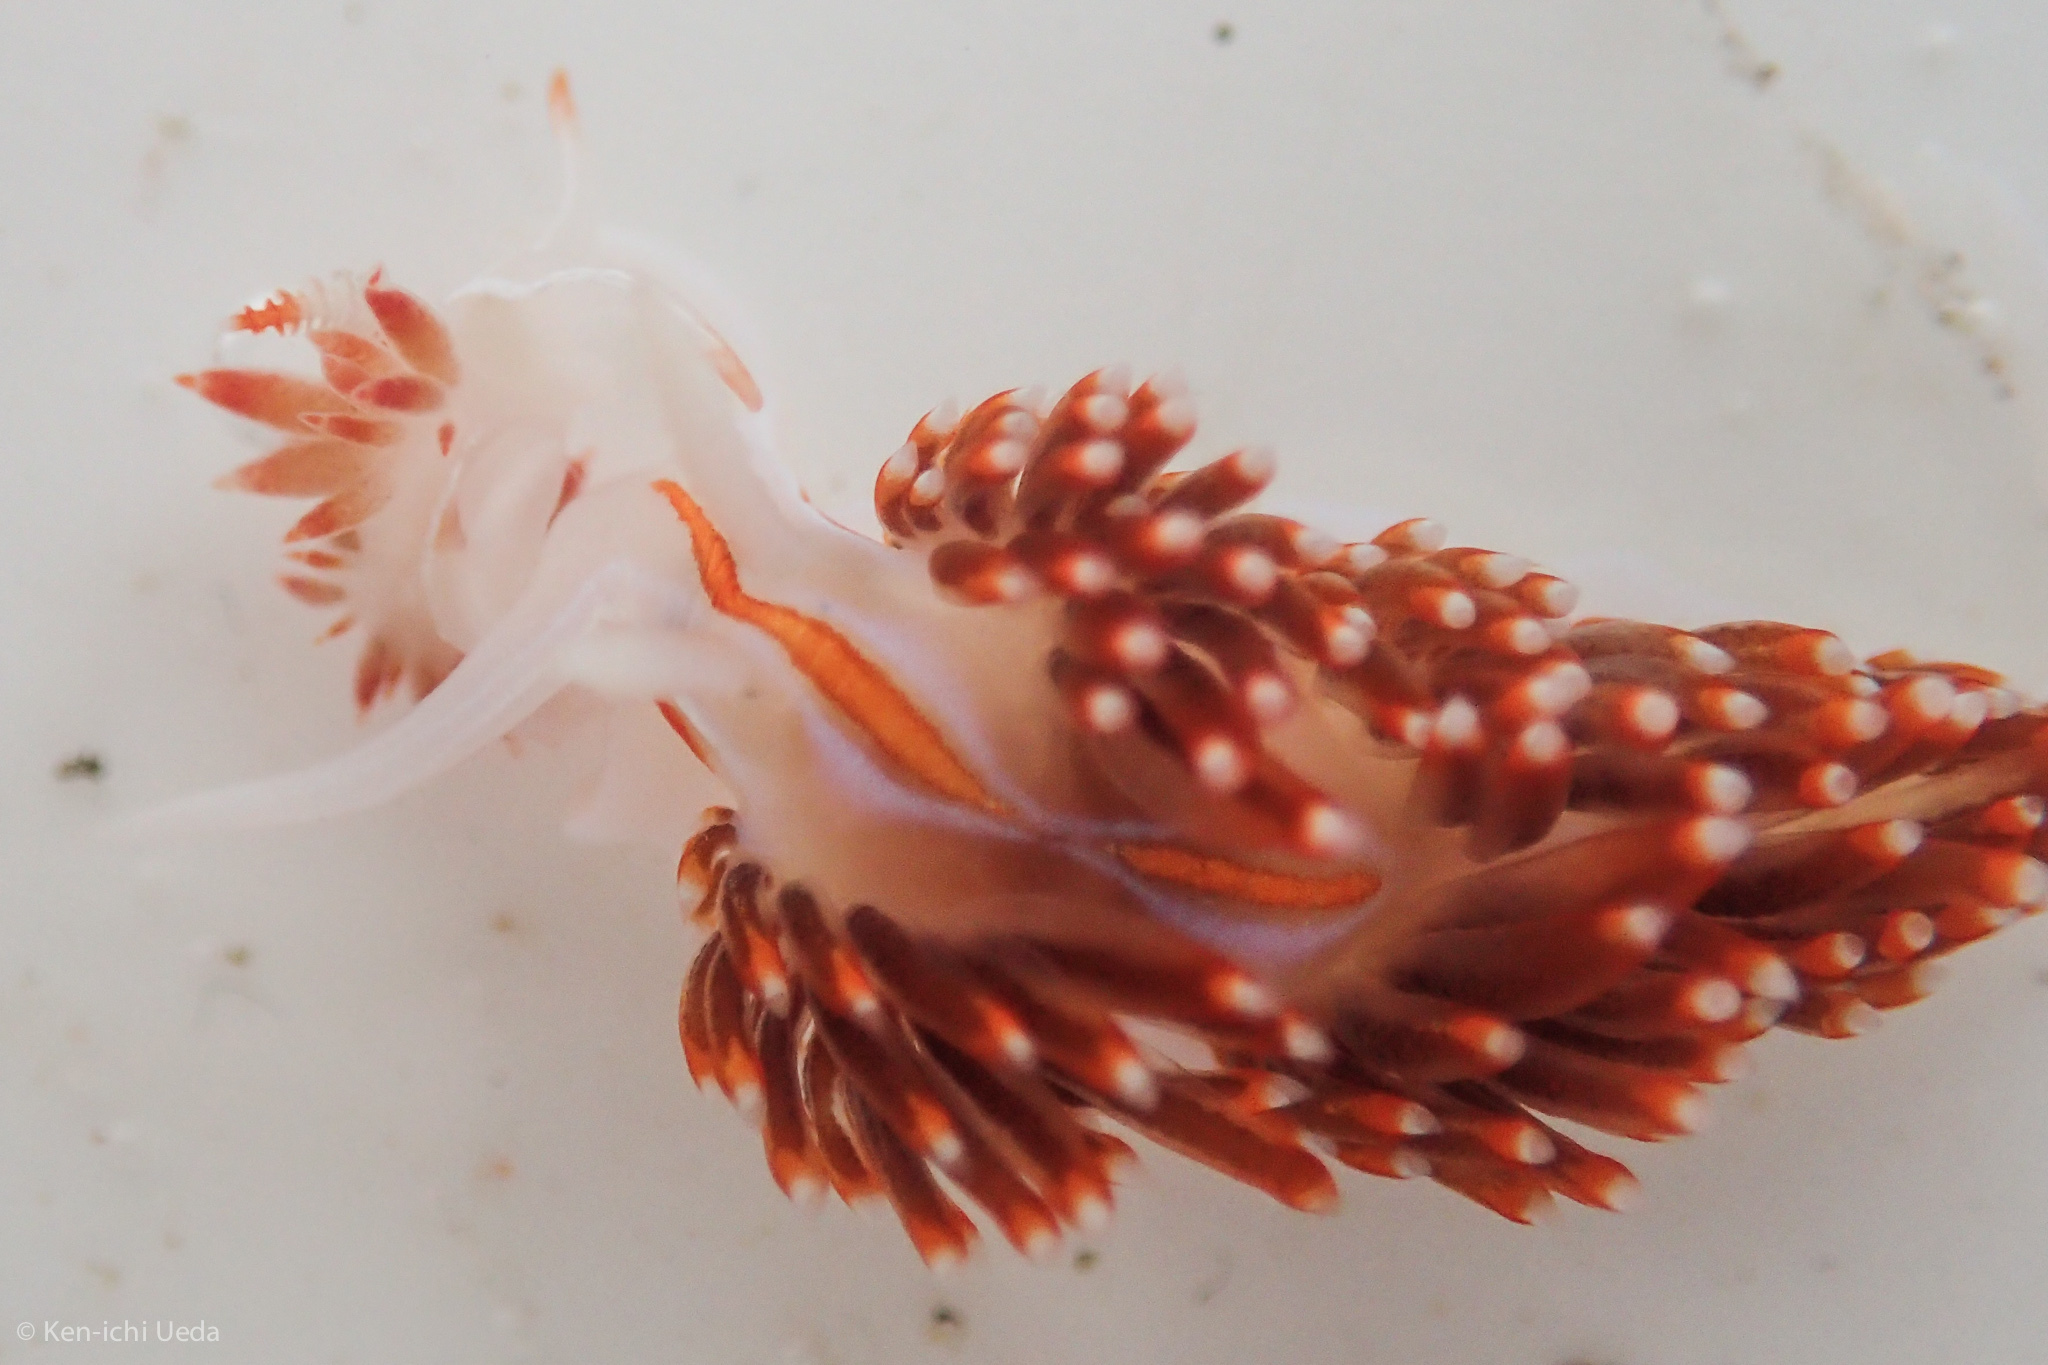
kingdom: Animalia
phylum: Mollusca
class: Gastropoda
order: Nudibranchia
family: Myrrhinidae
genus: Hermissenda
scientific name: Hermissenda opalescens
